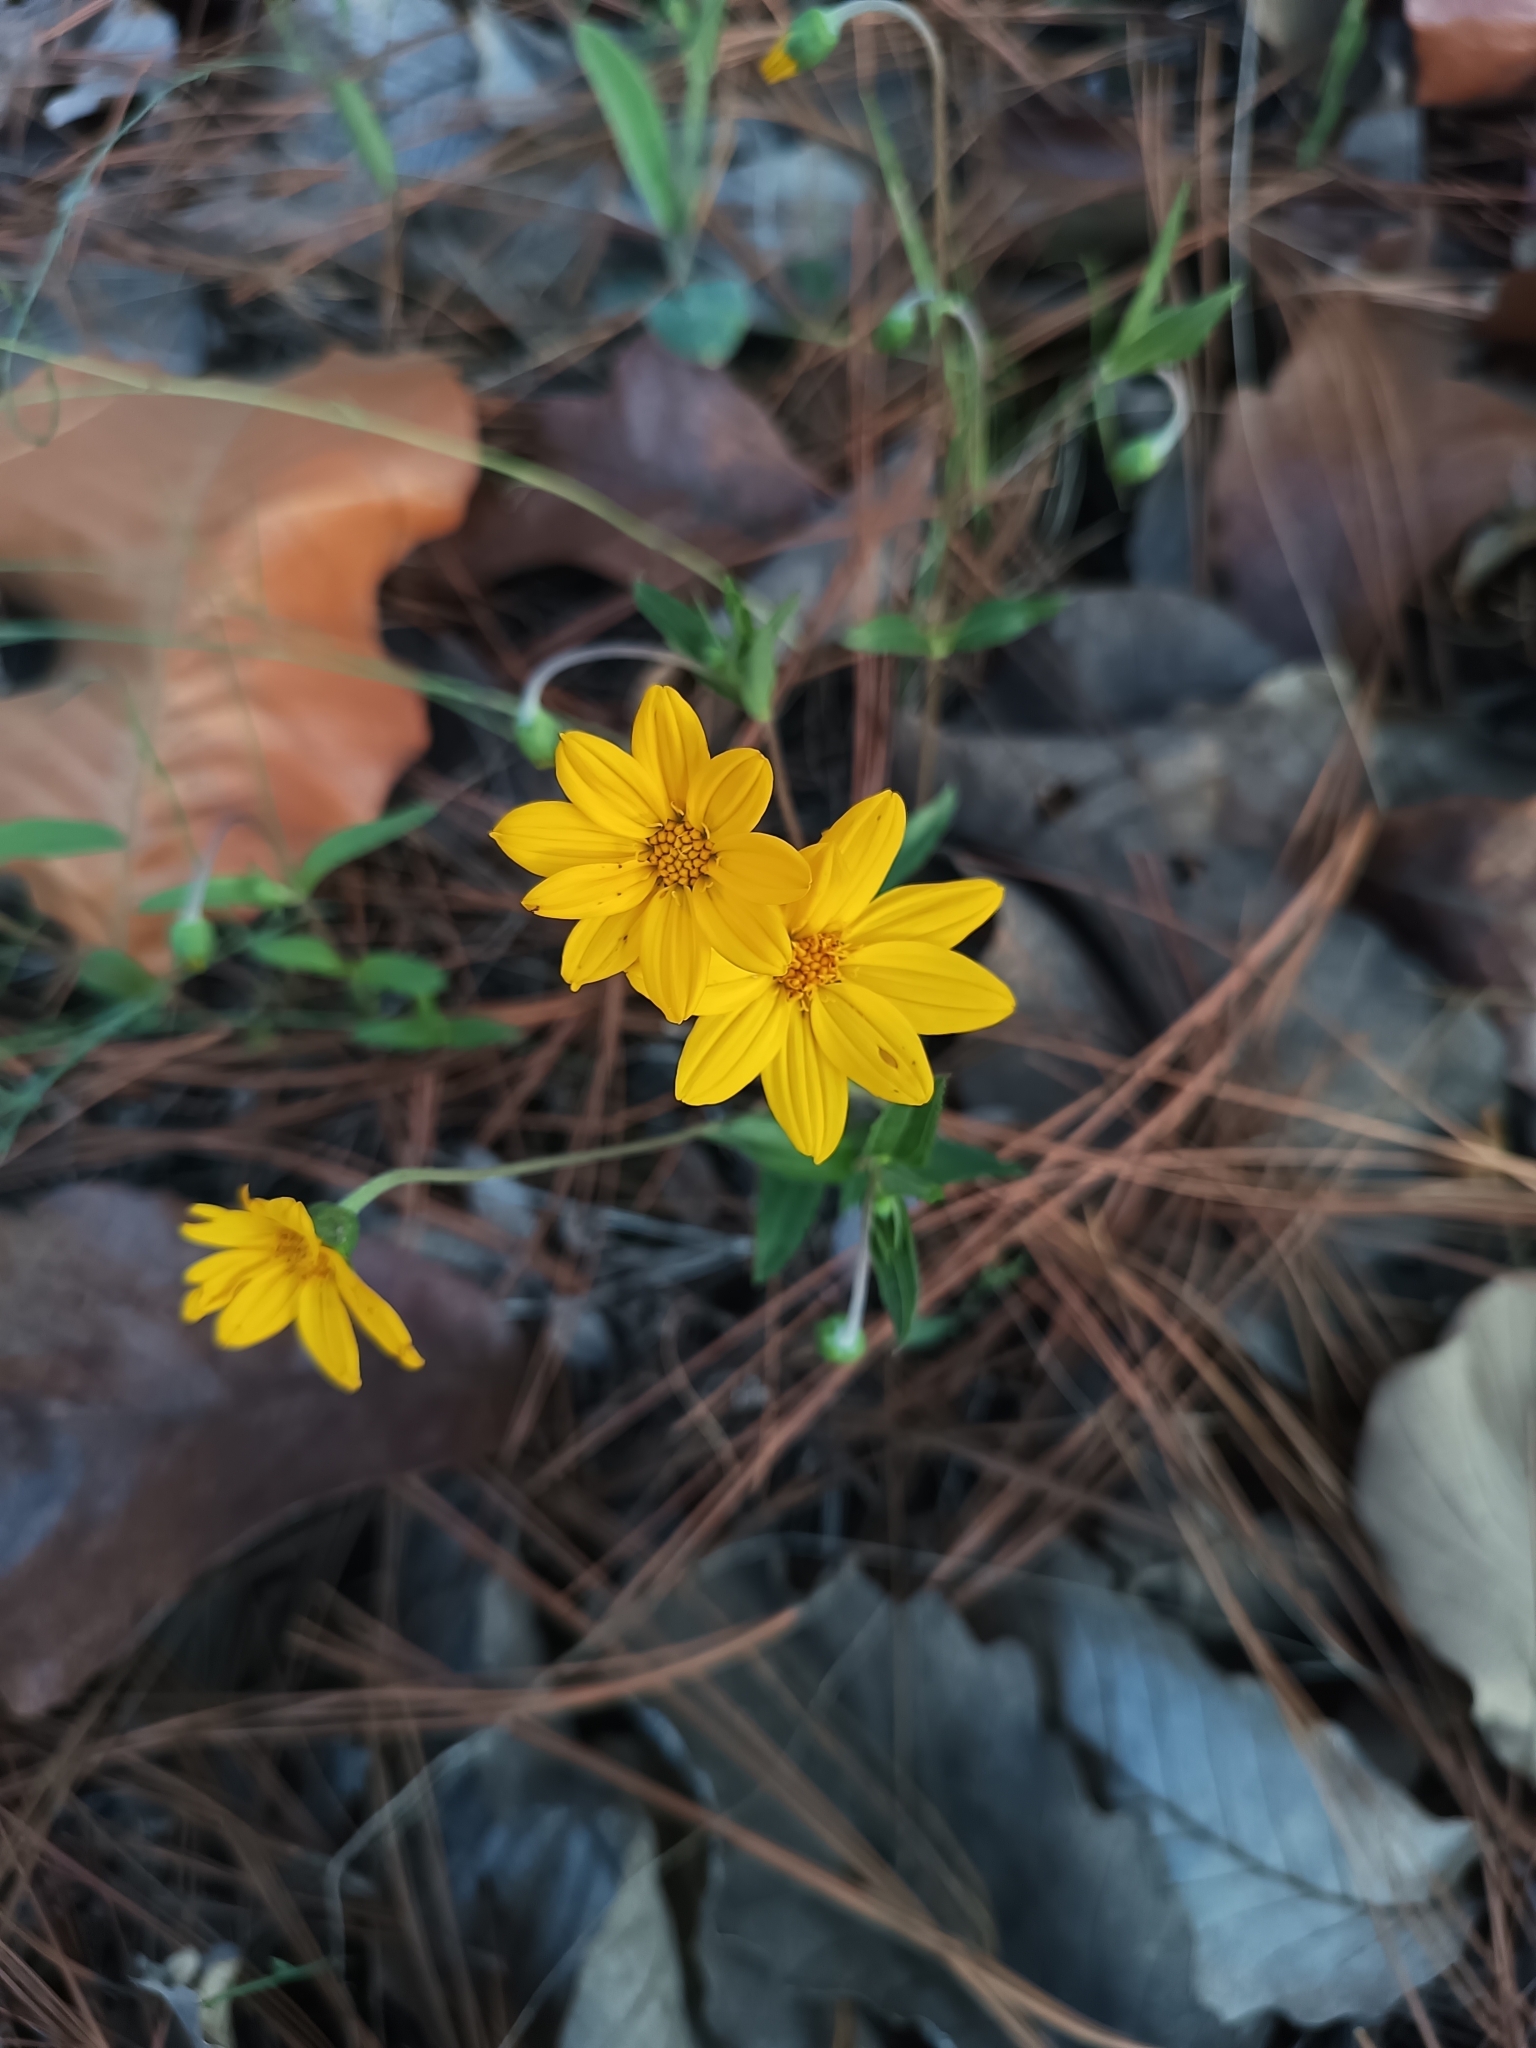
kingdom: Plantae
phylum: Tracheophyta
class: Magnoliopsida
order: Asterales
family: Asteraceae
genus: Perymenium
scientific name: Perymenium buphthalmoides
